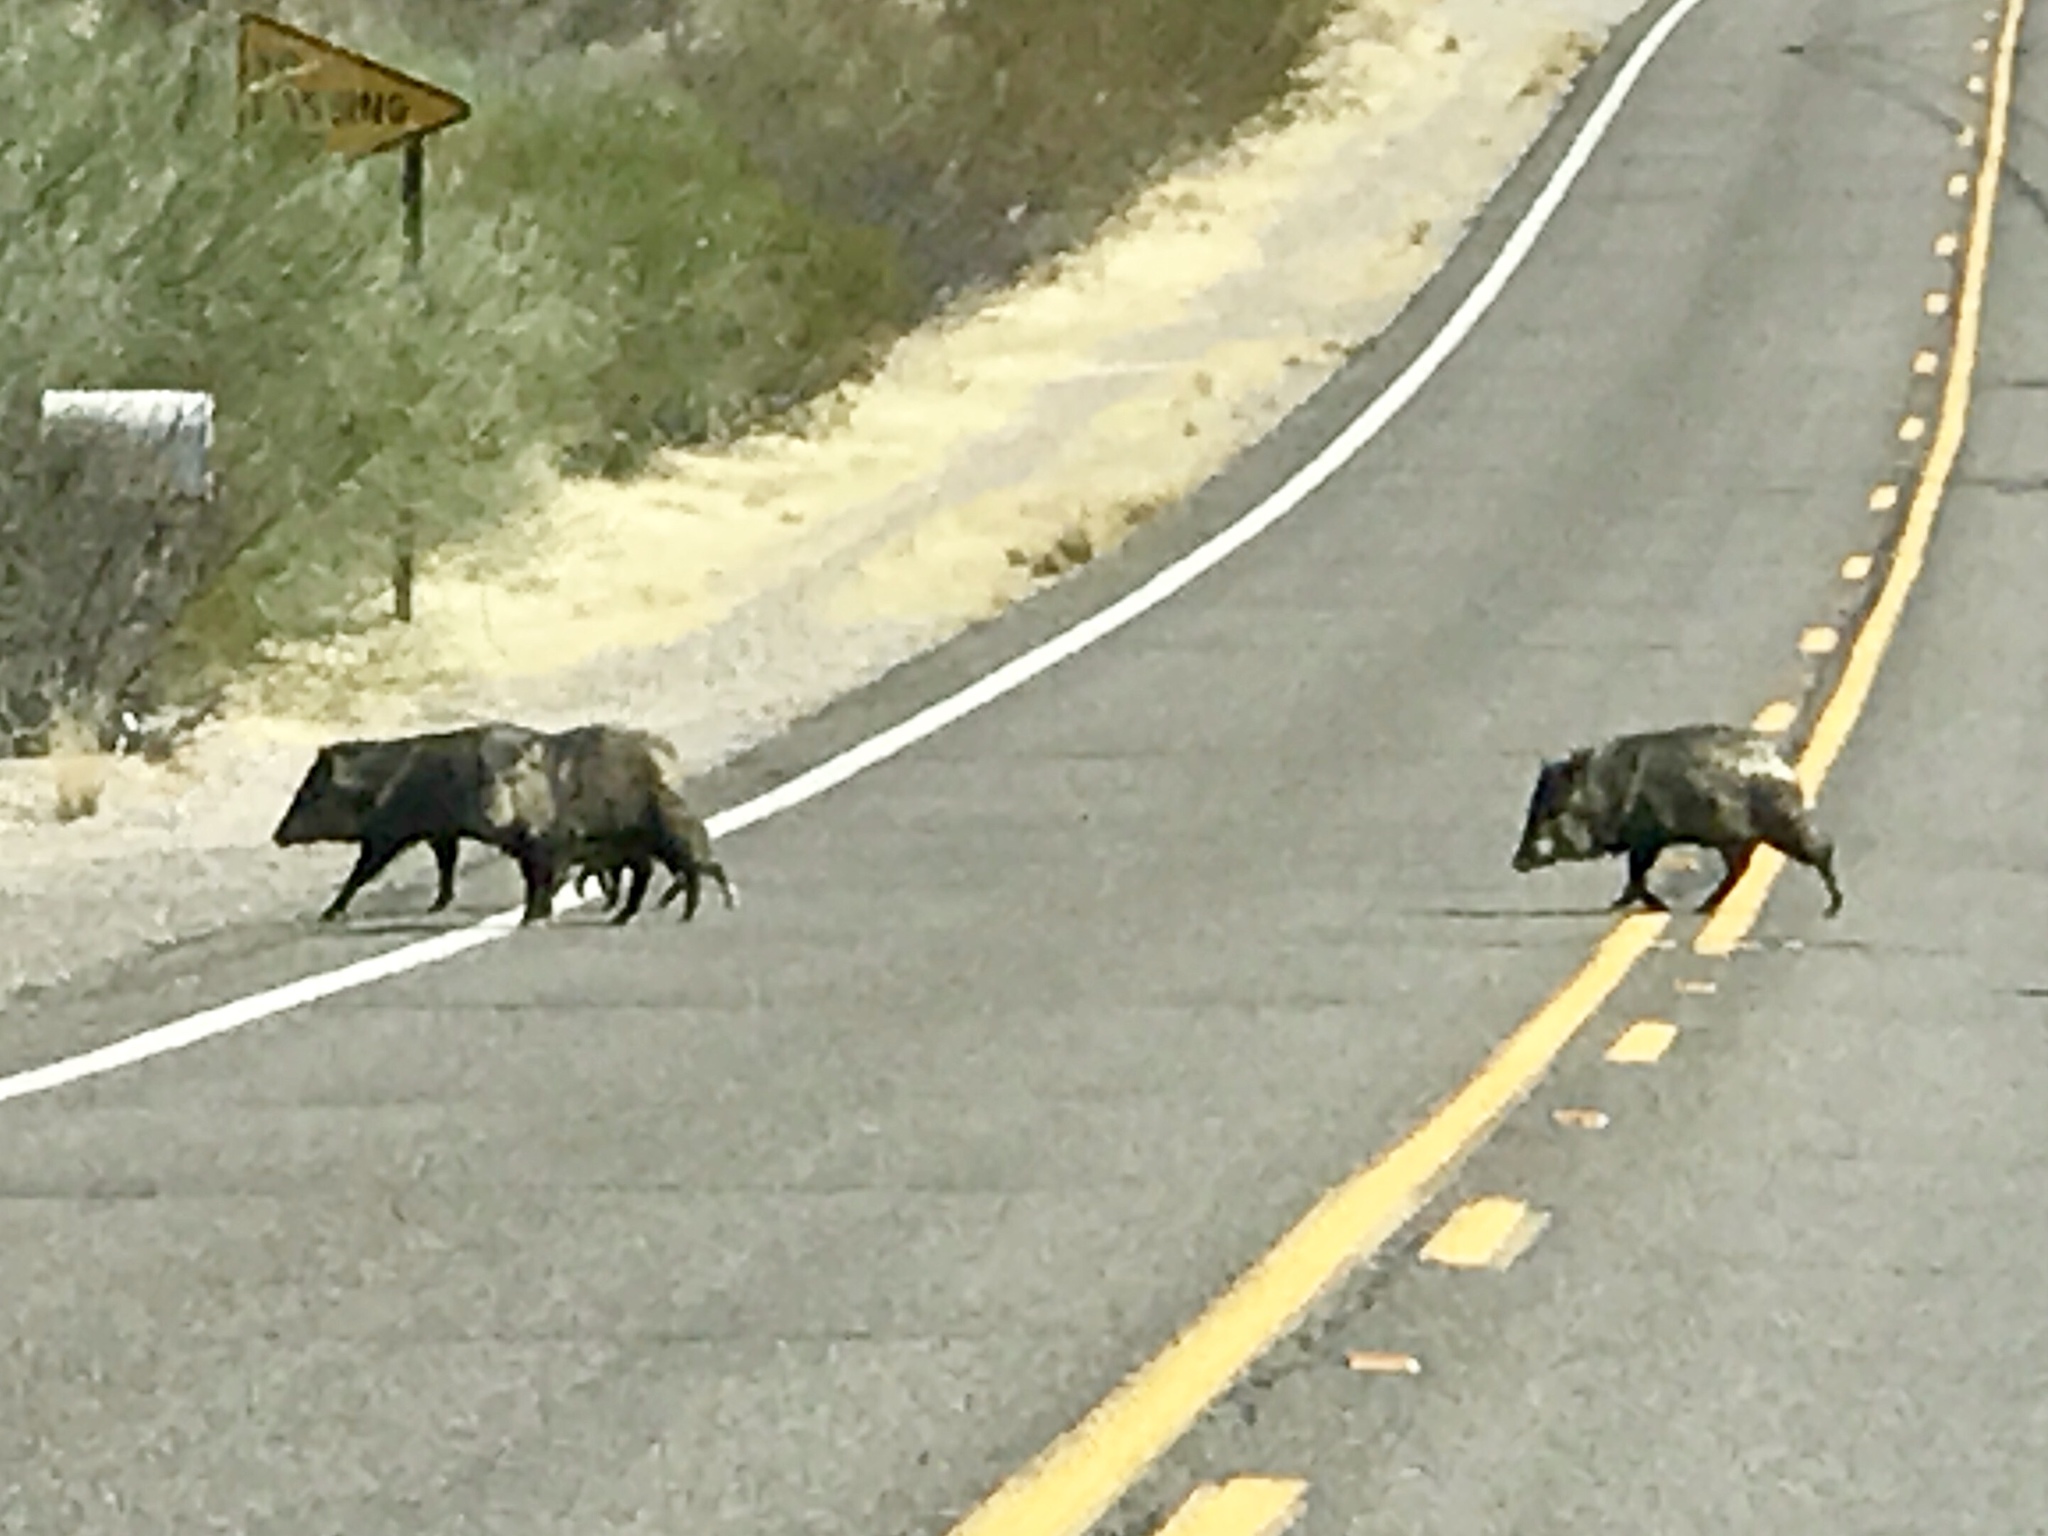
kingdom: Animalia
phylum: Chordata
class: Mammalia
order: Artiodactyla
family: Tayassuidae
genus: Pecari
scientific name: Pecari tajacu
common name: Collared peccary
